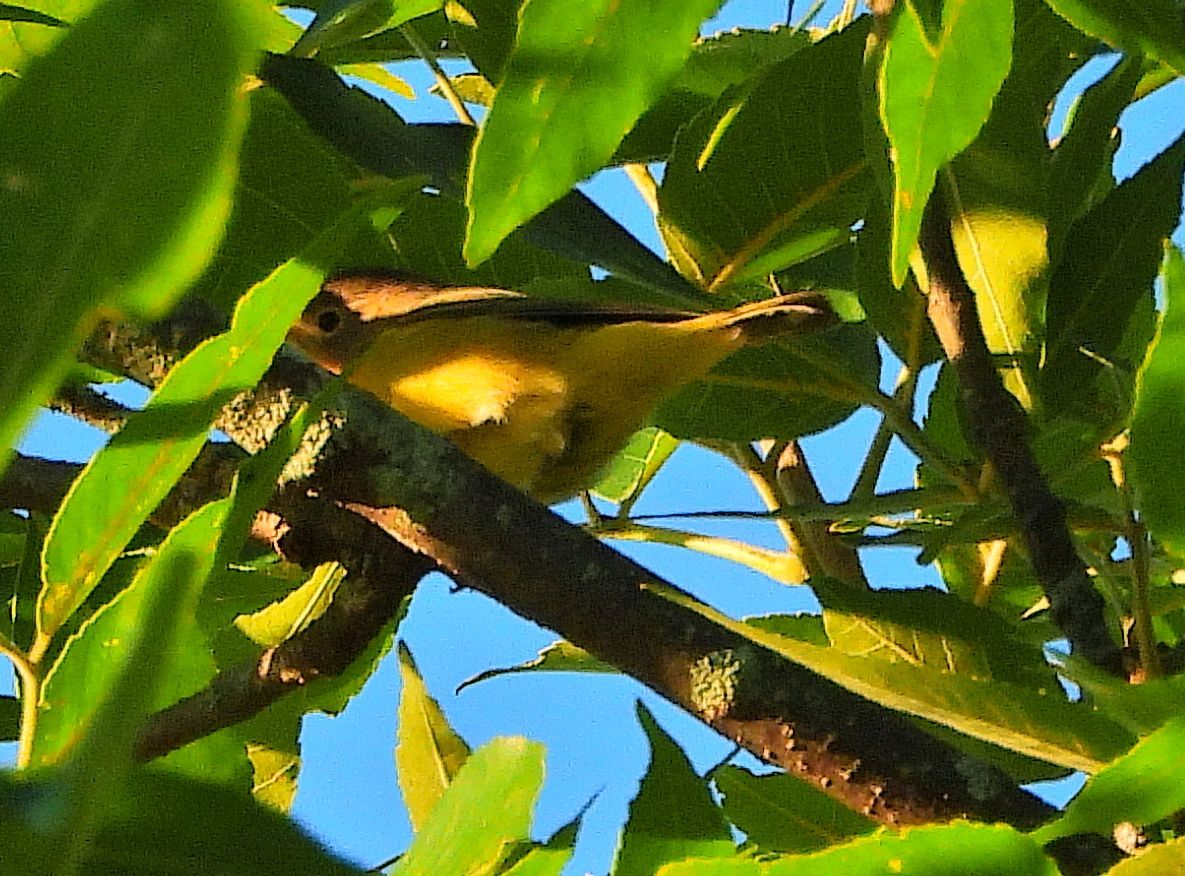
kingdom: Animalia
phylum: Chordata
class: Aves
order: Passeriformes
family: Parulidae
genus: Leiothlypis
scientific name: Leiothlypis ruficapilla
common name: Nashville warbler
